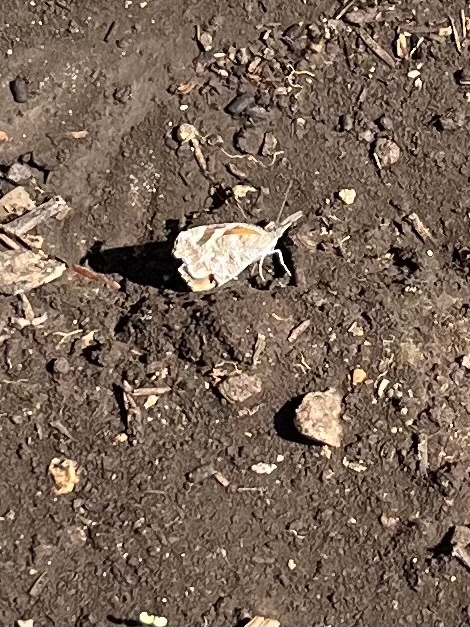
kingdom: Animalia
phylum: Arthropoda
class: Insecta
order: Lepidoptera
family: Nymphalidae
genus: Libytheana
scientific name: Libytheana carinenta
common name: American snout
